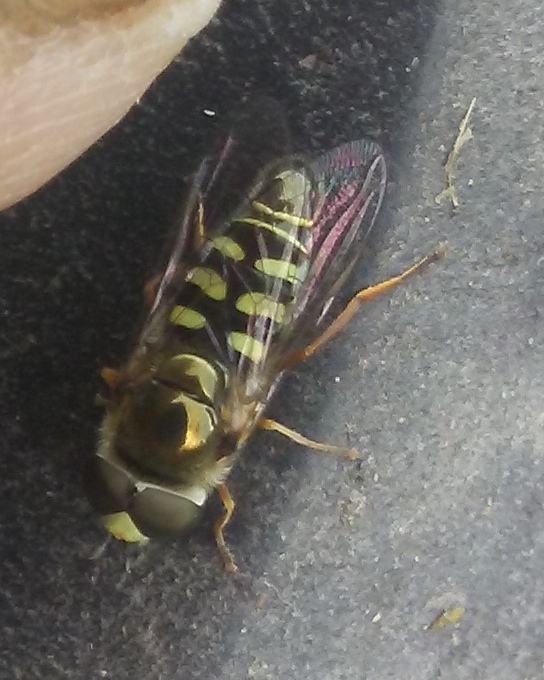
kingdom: Animalia
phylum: Arthropoda
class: Insecta
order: Diptera
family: Syrphidae
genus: Eupeodes
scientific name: Eupeodes volucris
